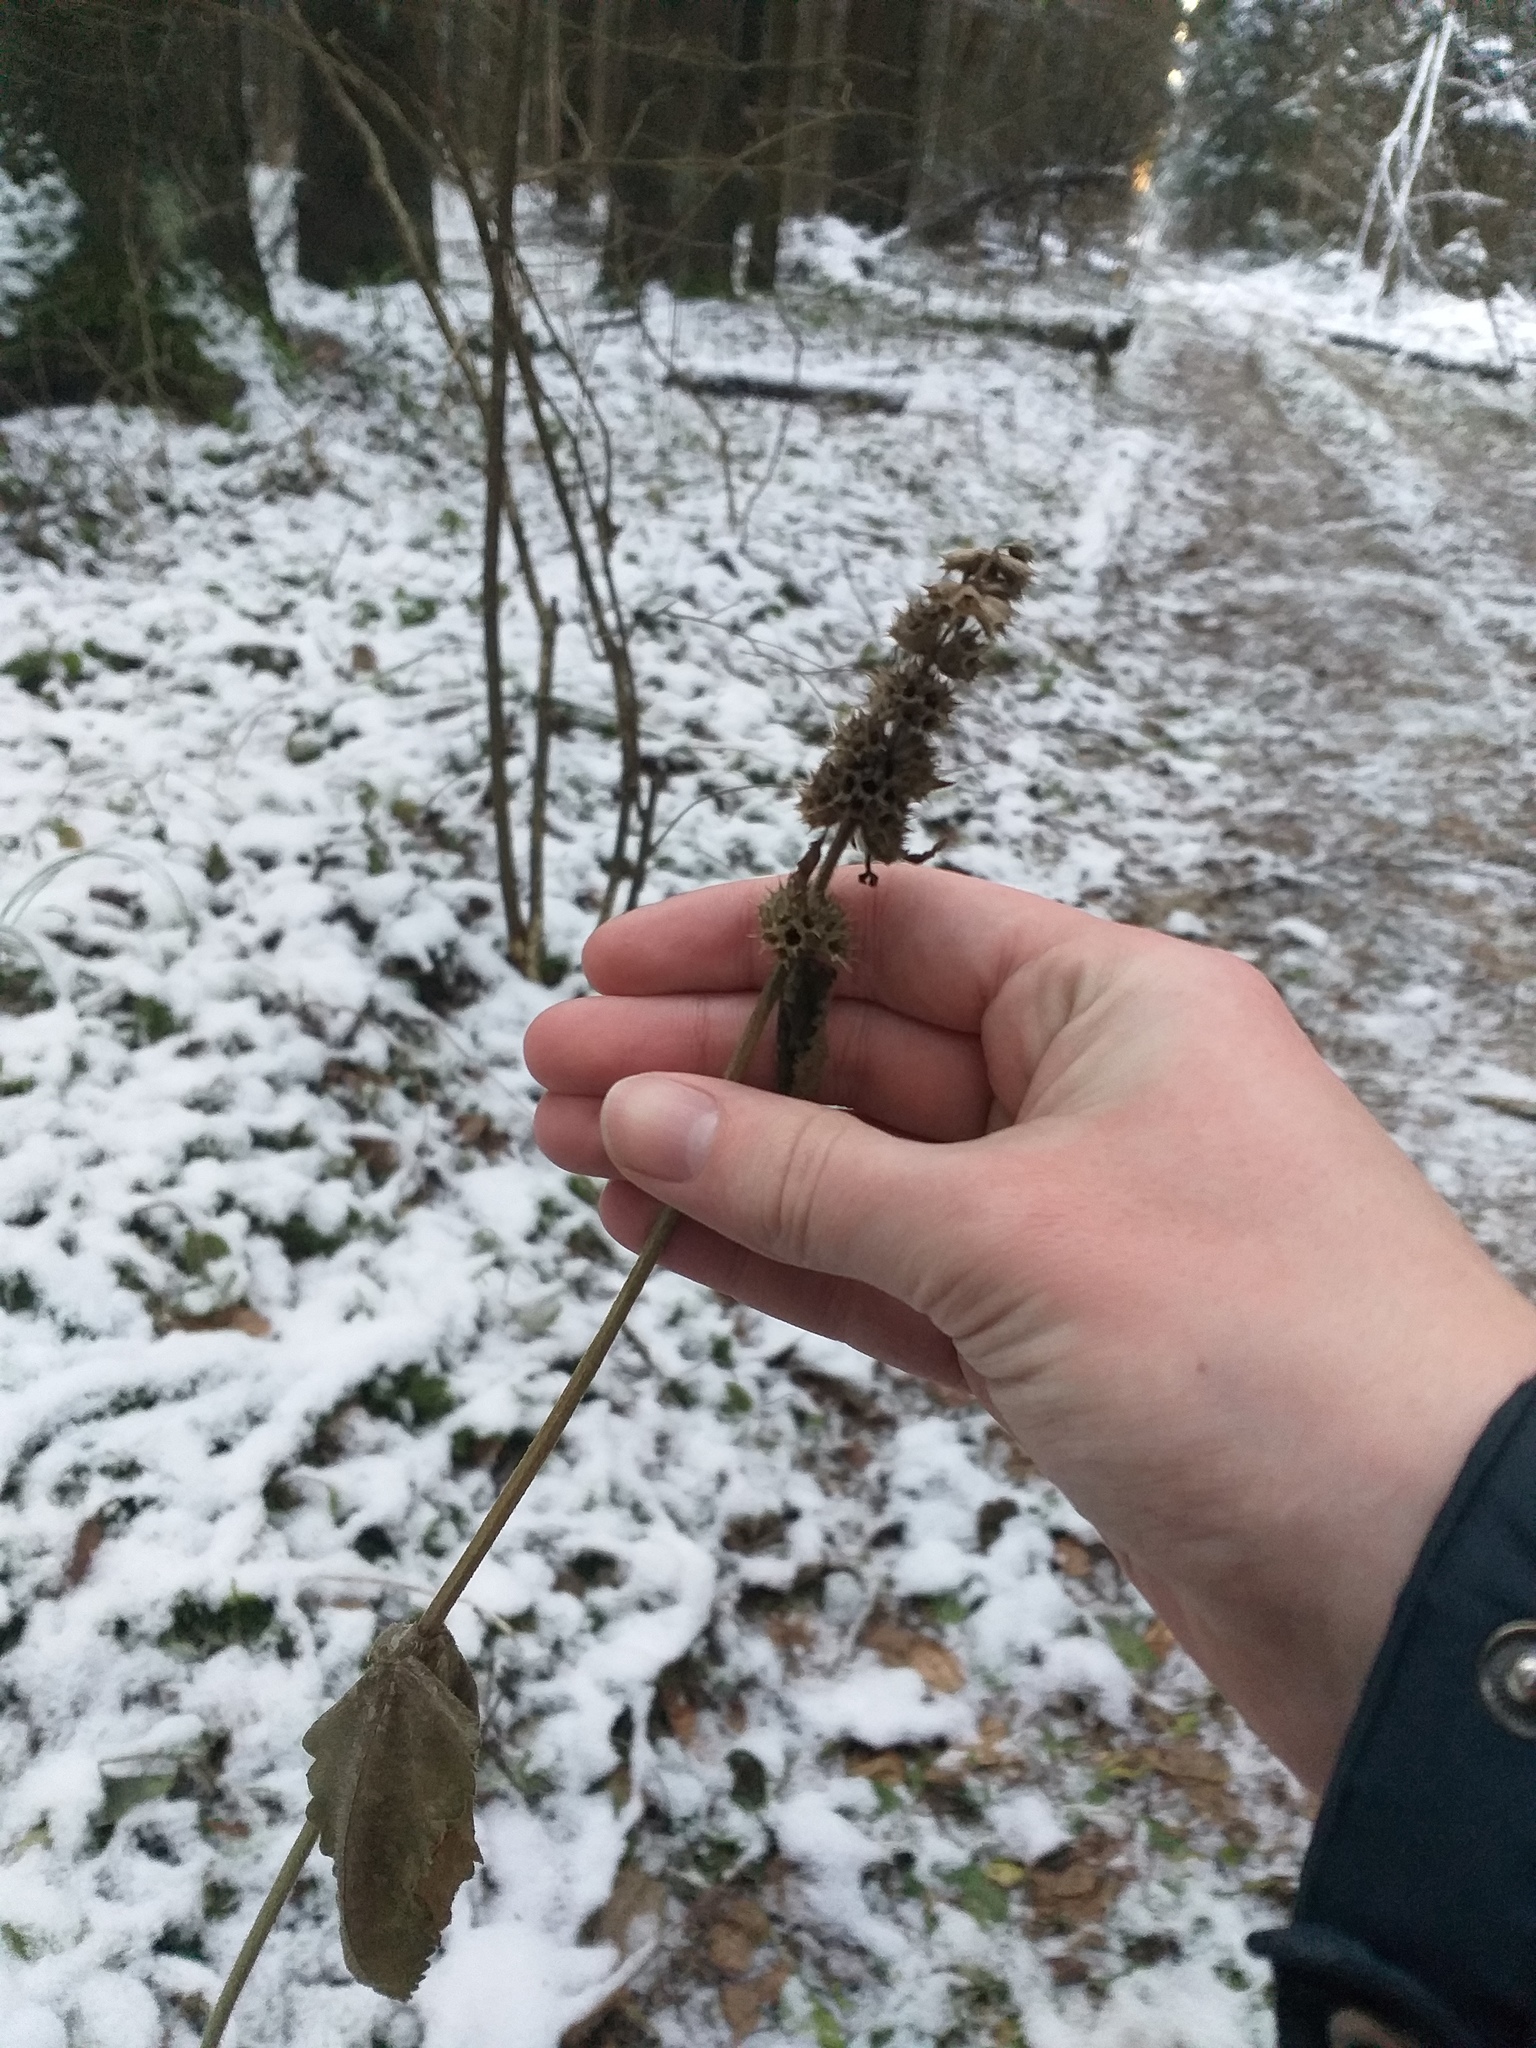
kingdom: Plantae
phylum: Tracheophyta
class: Magnoliopsida
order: Lamiales
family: Lamiaceae
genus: Betonica
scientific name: Betonica officinalis
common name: Bishop's-wort
